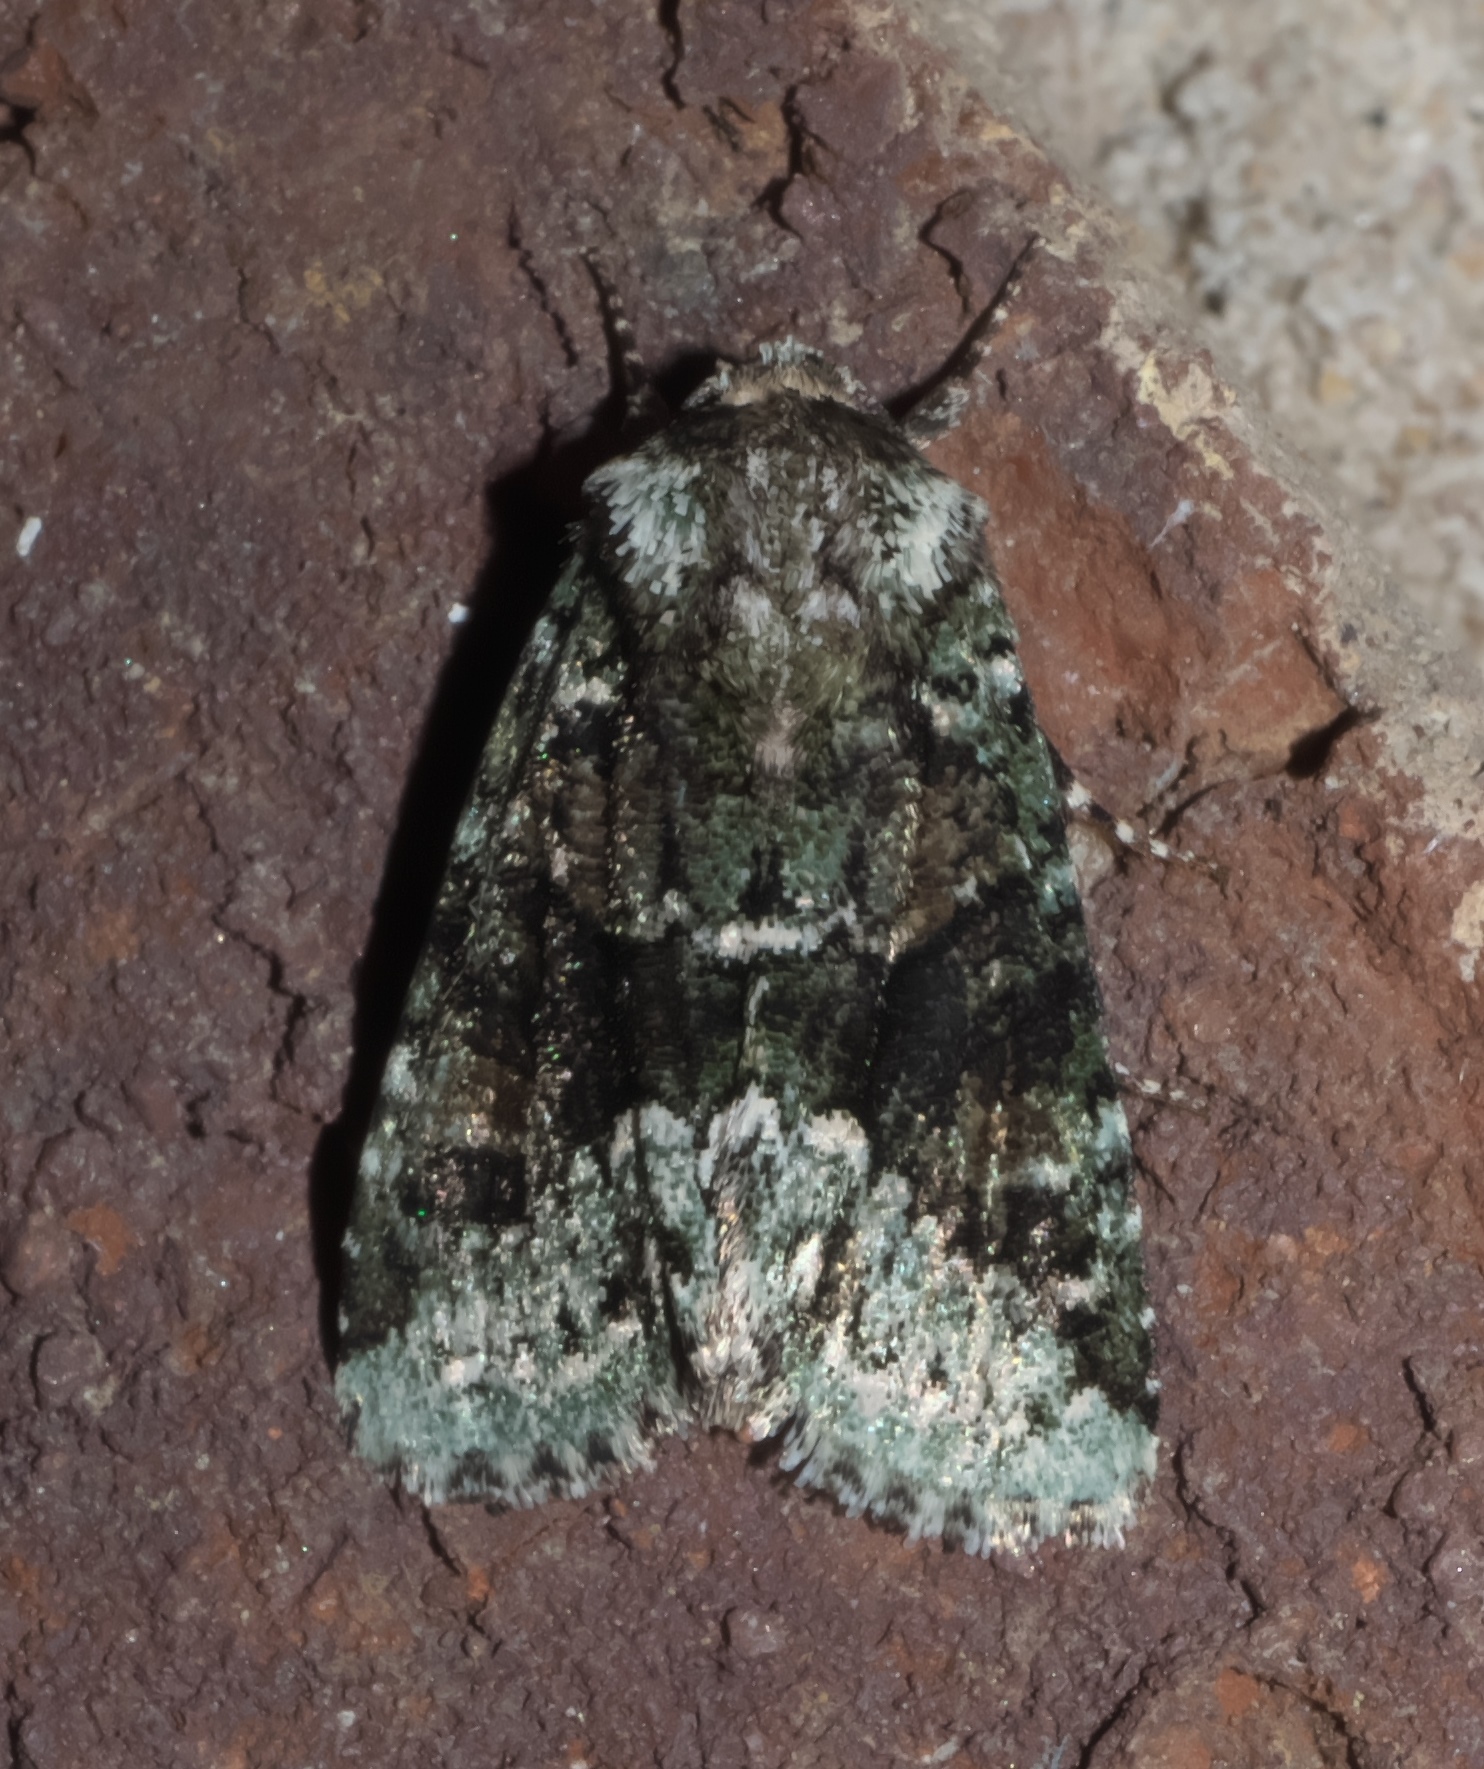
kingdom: Animalia
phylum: Arthropoda
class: Insecta
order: Lepidoptera
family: Noctuidae
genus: Lacinipolia
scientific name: Lacinipolia explicata
